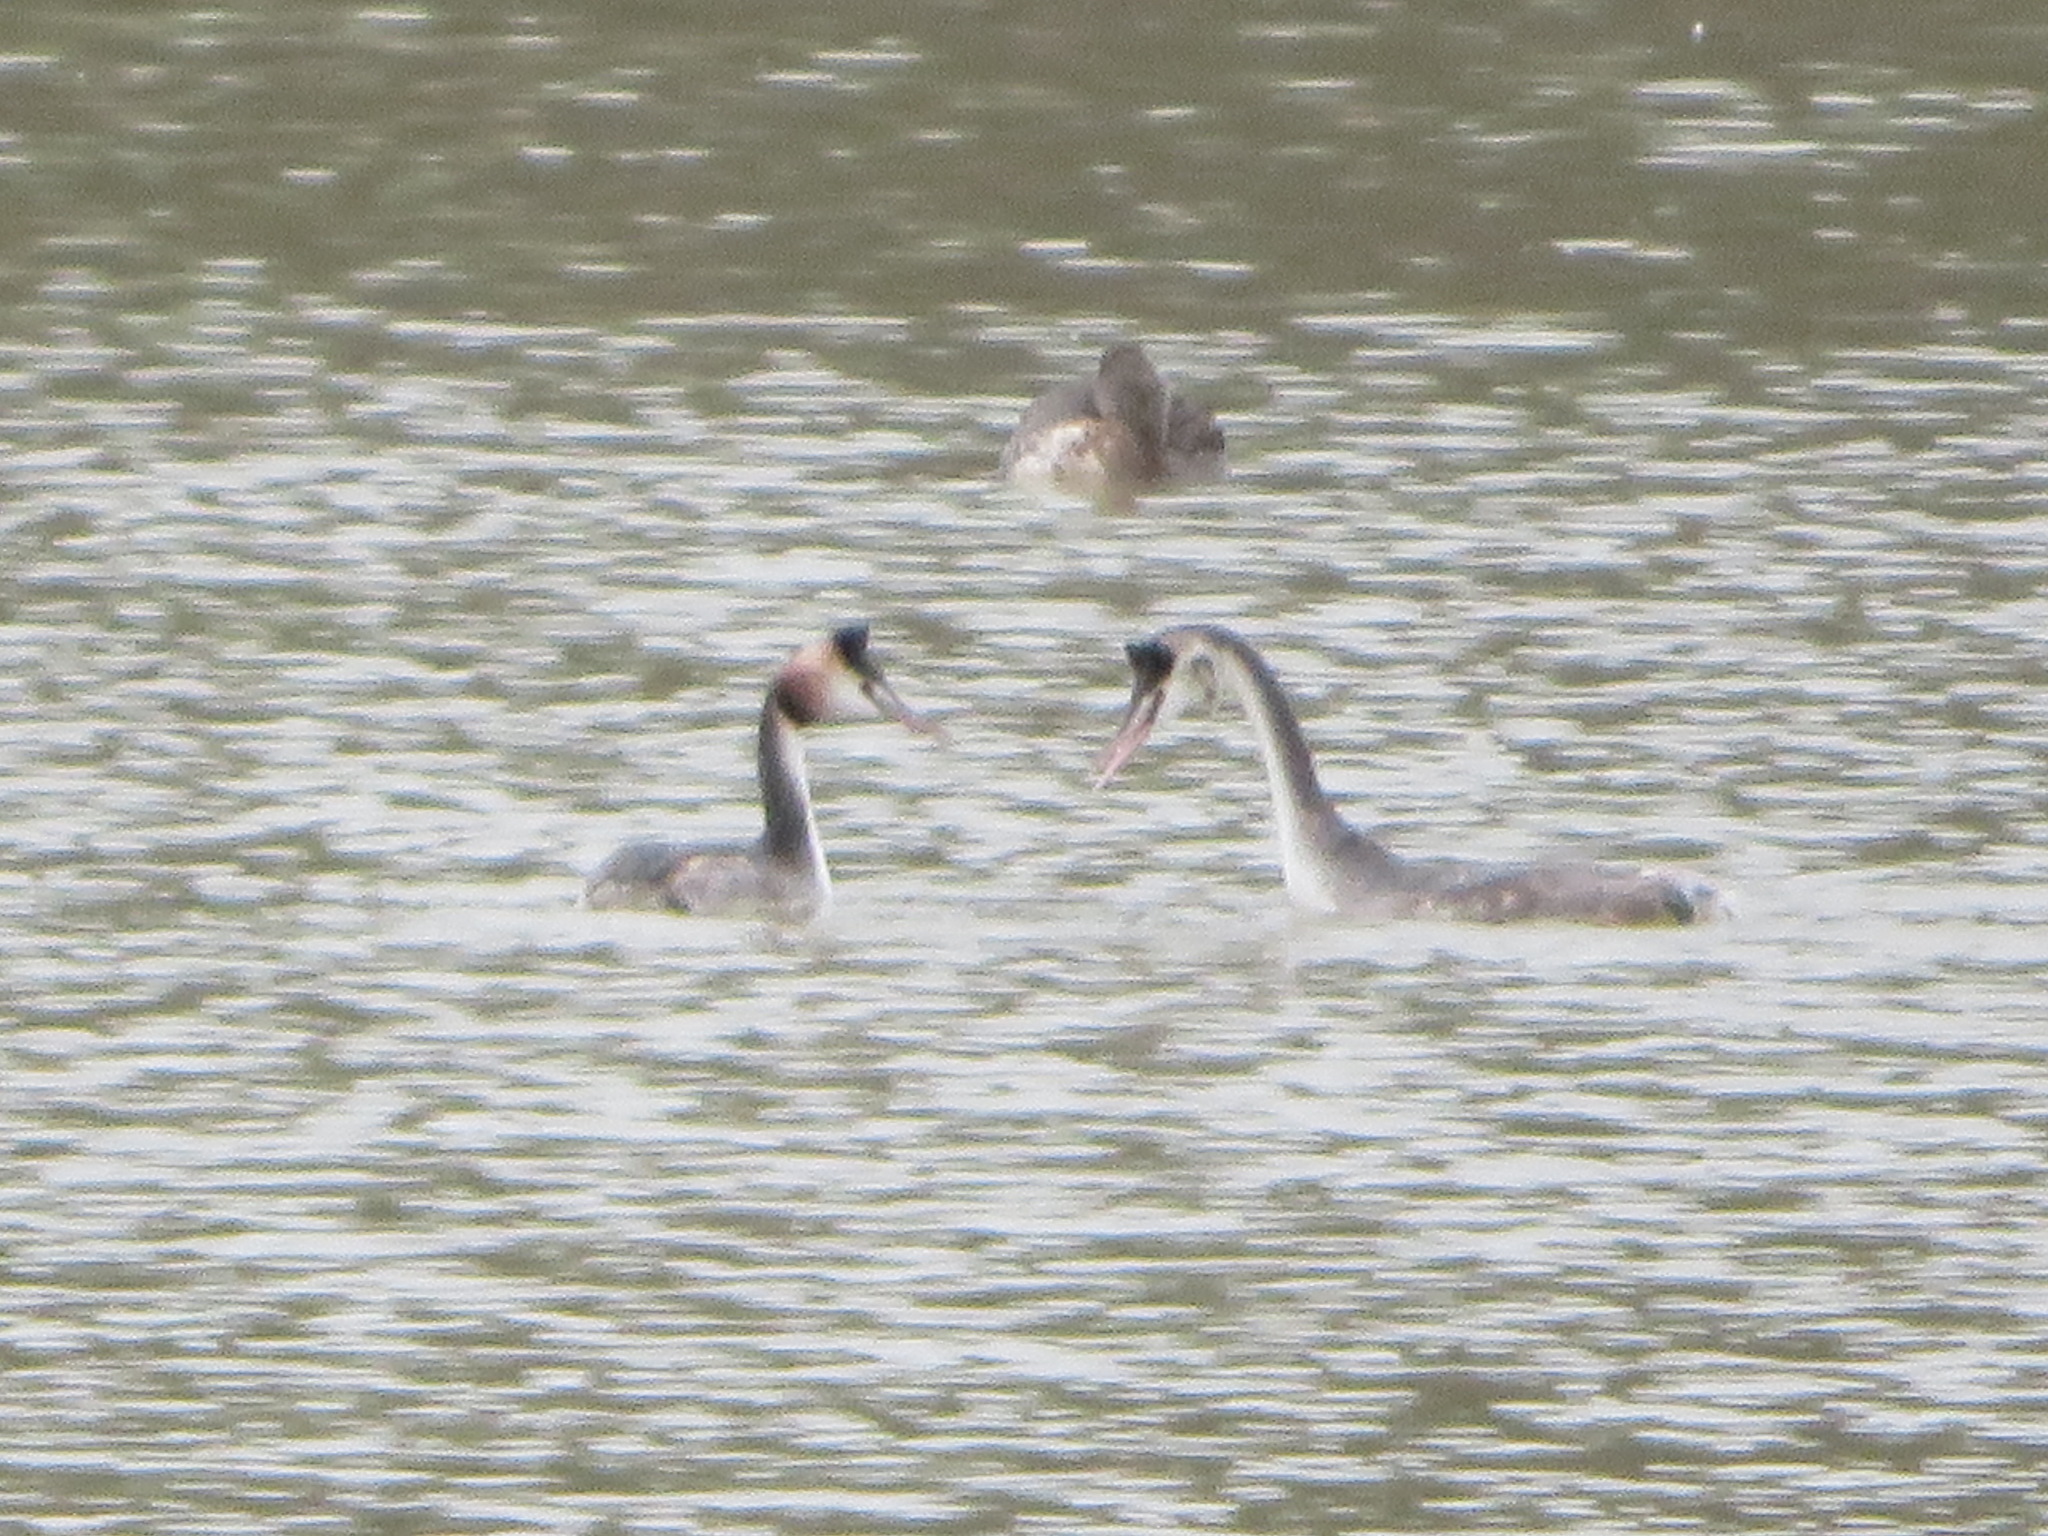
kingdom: Animalia
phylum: Chordata
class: Aves
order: Podicipediformes
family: Podicipedidae
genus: Podiceps
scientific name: Podiceps cristatus
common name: Great crested grebe
